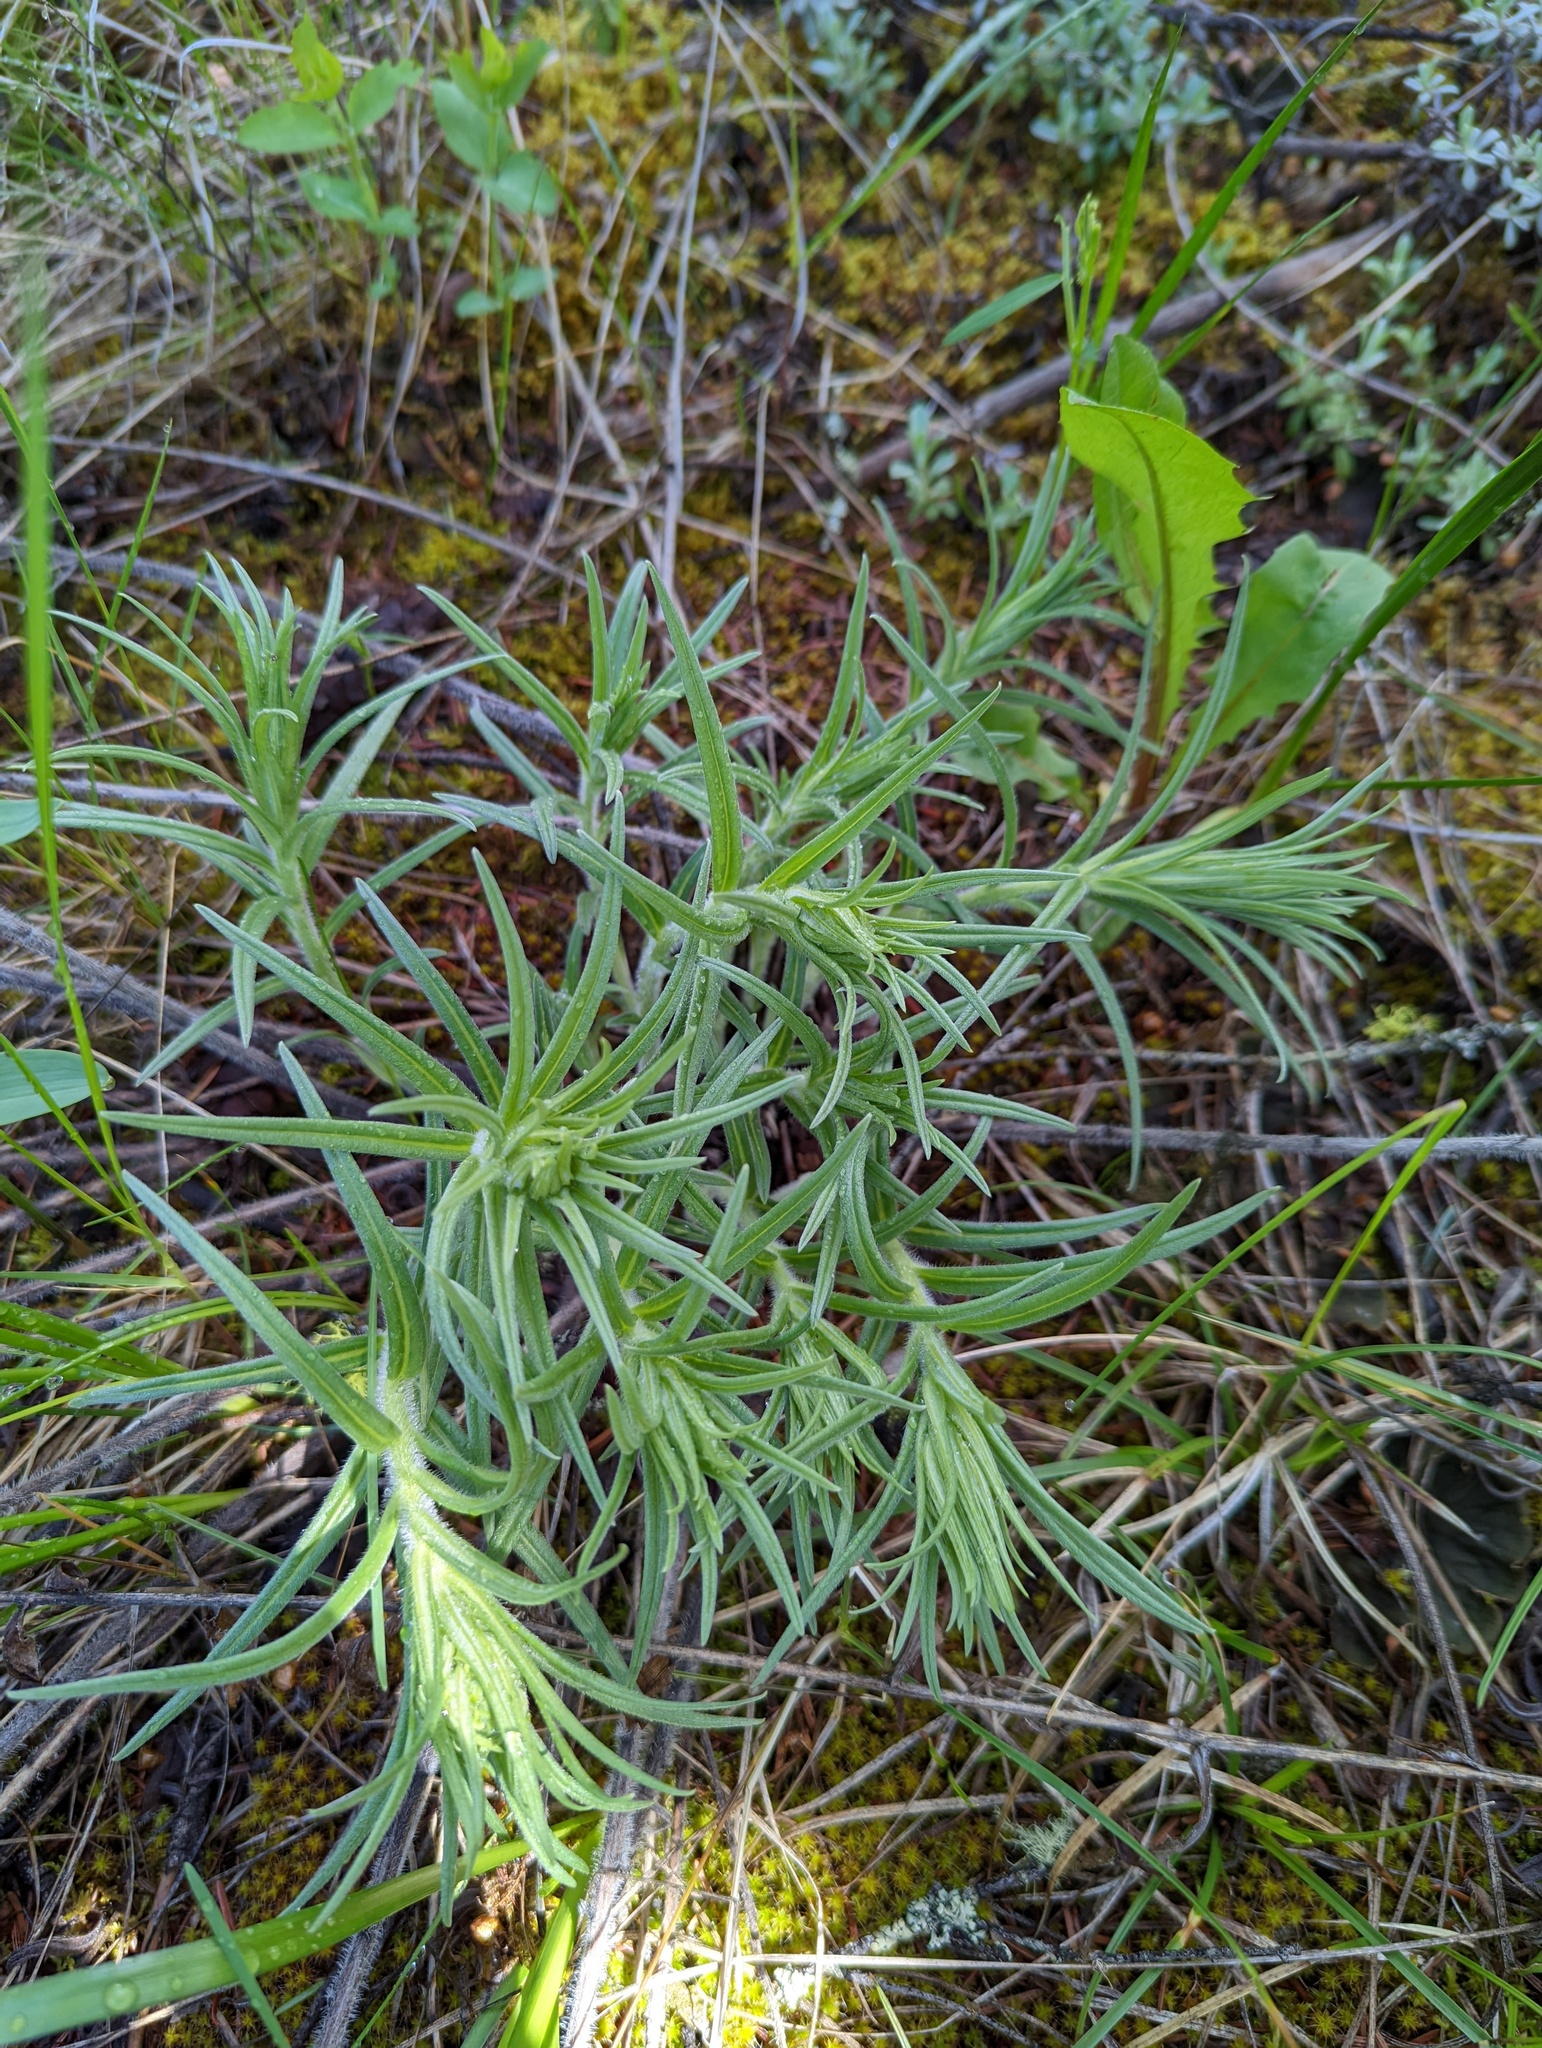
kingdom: Plantae
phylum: Tracheophyta
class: Magnoliopsida
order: Boraginales
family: Boraginaceae
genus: Lithospermum
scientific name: Lithospermum ruderale
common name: Western gromwell
